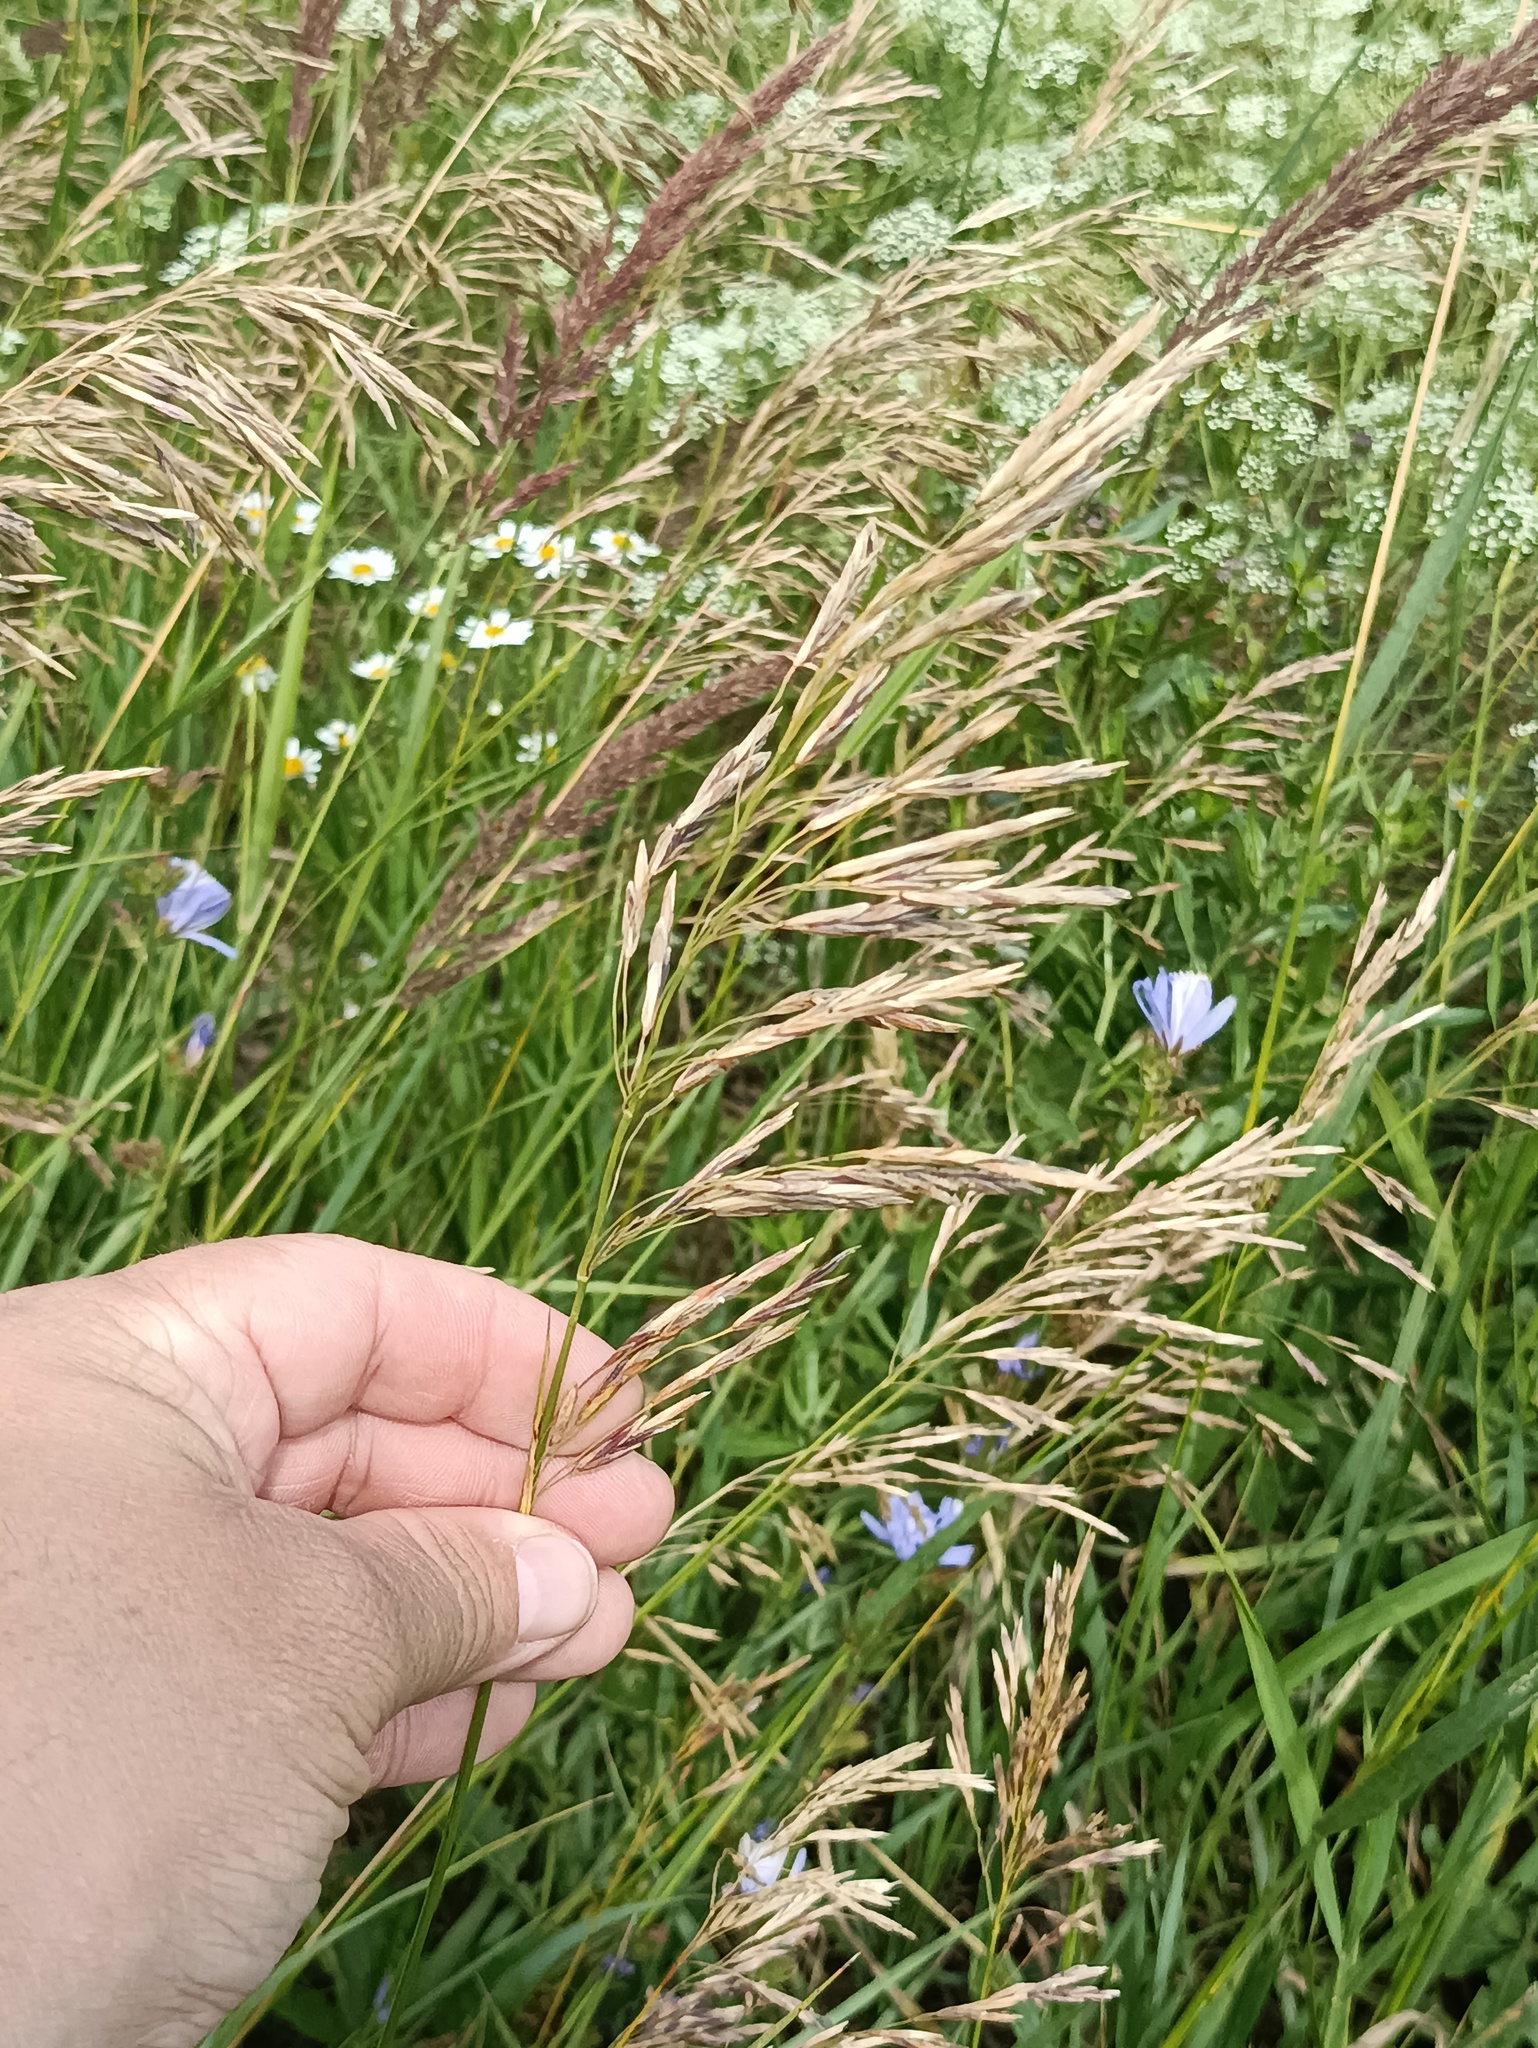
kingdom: Plantae
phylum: Tracheophyta
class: Liliopsida
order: Poales
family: Poaceae
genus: Bromus
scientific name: Bromus inermis
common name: Smooth brome
